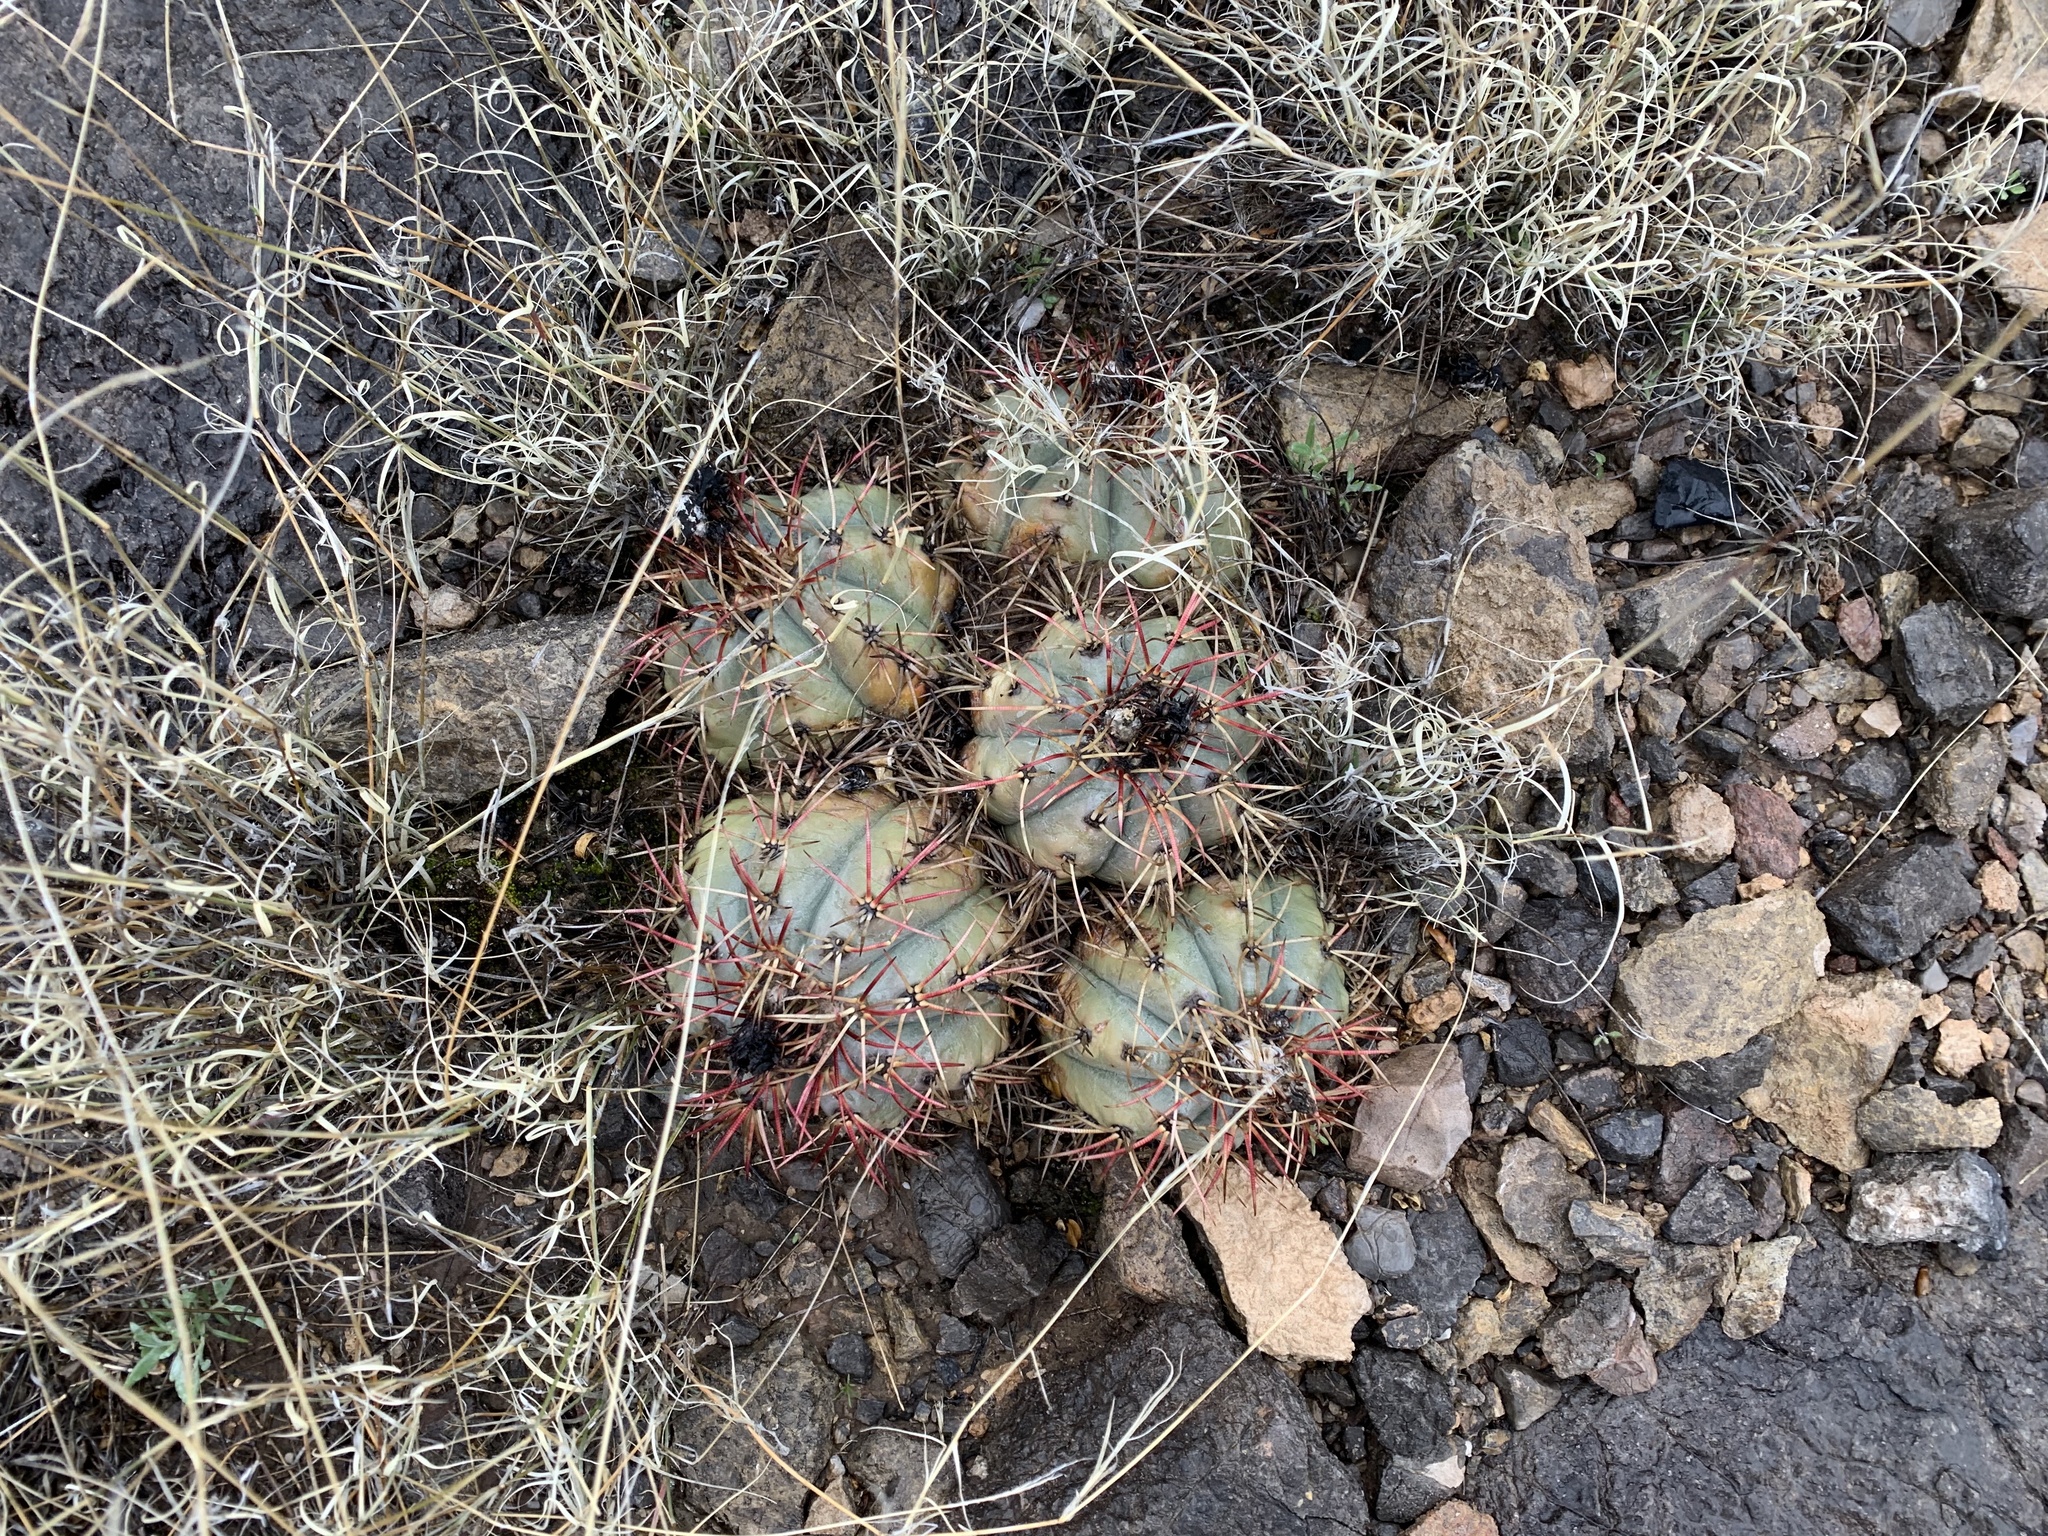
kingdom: Plantae
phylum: Tracheophyta
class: Magnoliopsida
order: Caryophyllales
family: Cactaceae
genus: Echinocactus
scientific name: Echinocactus horizonthalonius
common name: Devilshead
